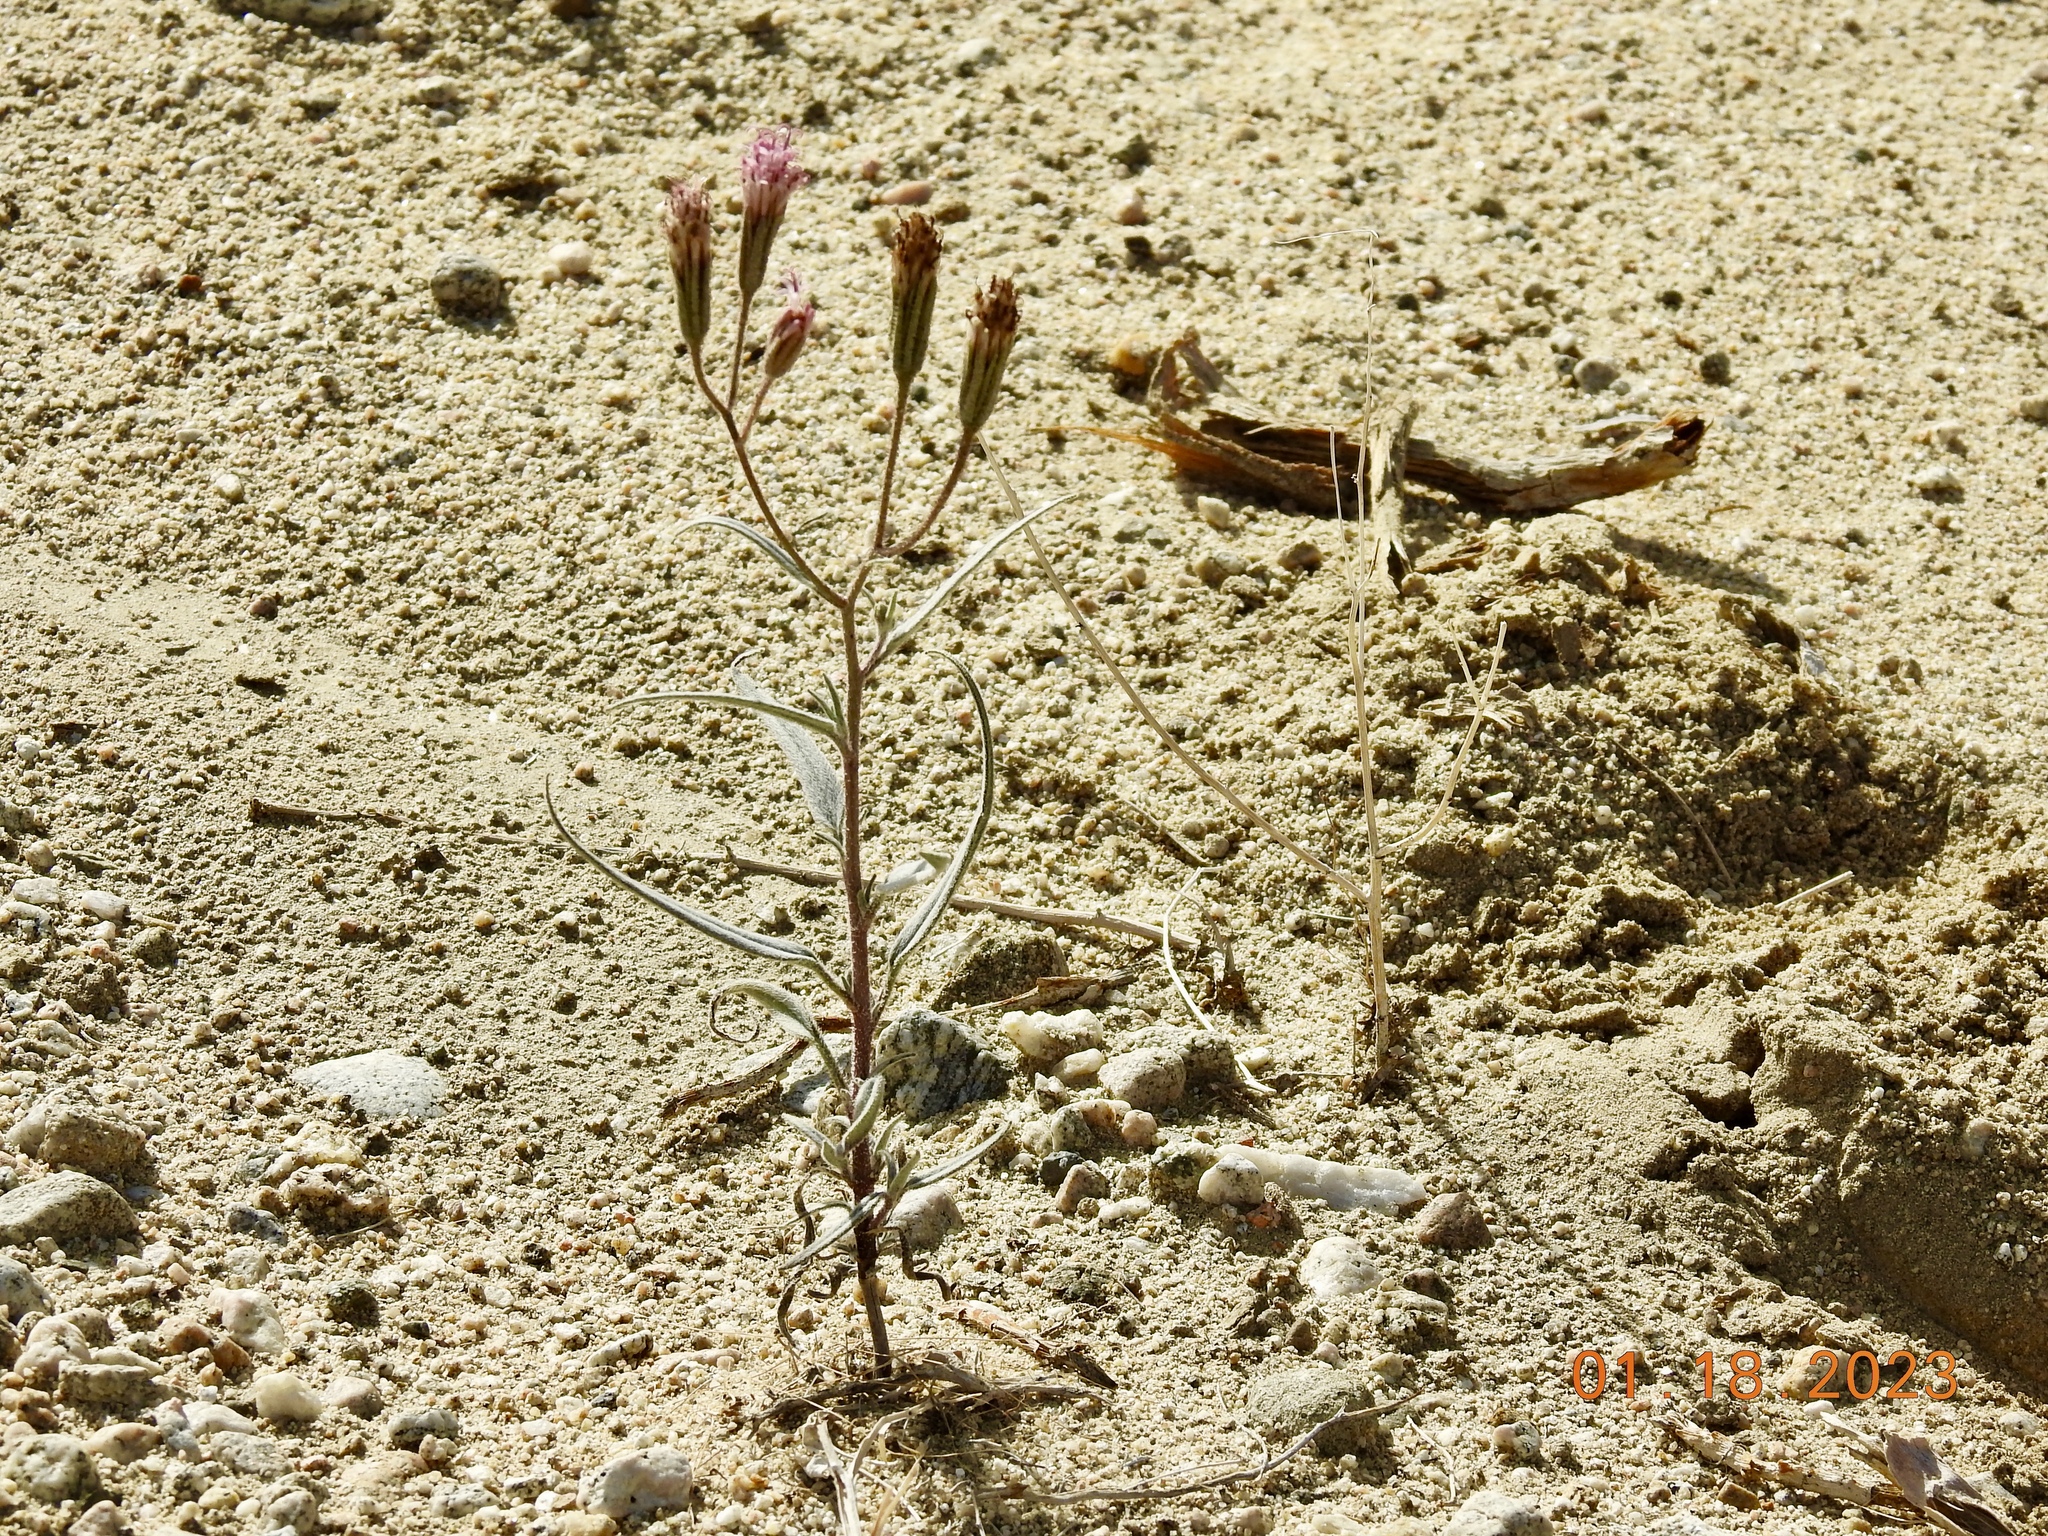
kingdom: Plantae
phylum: Tracheophyta
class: Magnoliopsida
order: Asterales
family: Asteraceae
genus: Palafoxia
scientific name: Palafoxia arida
